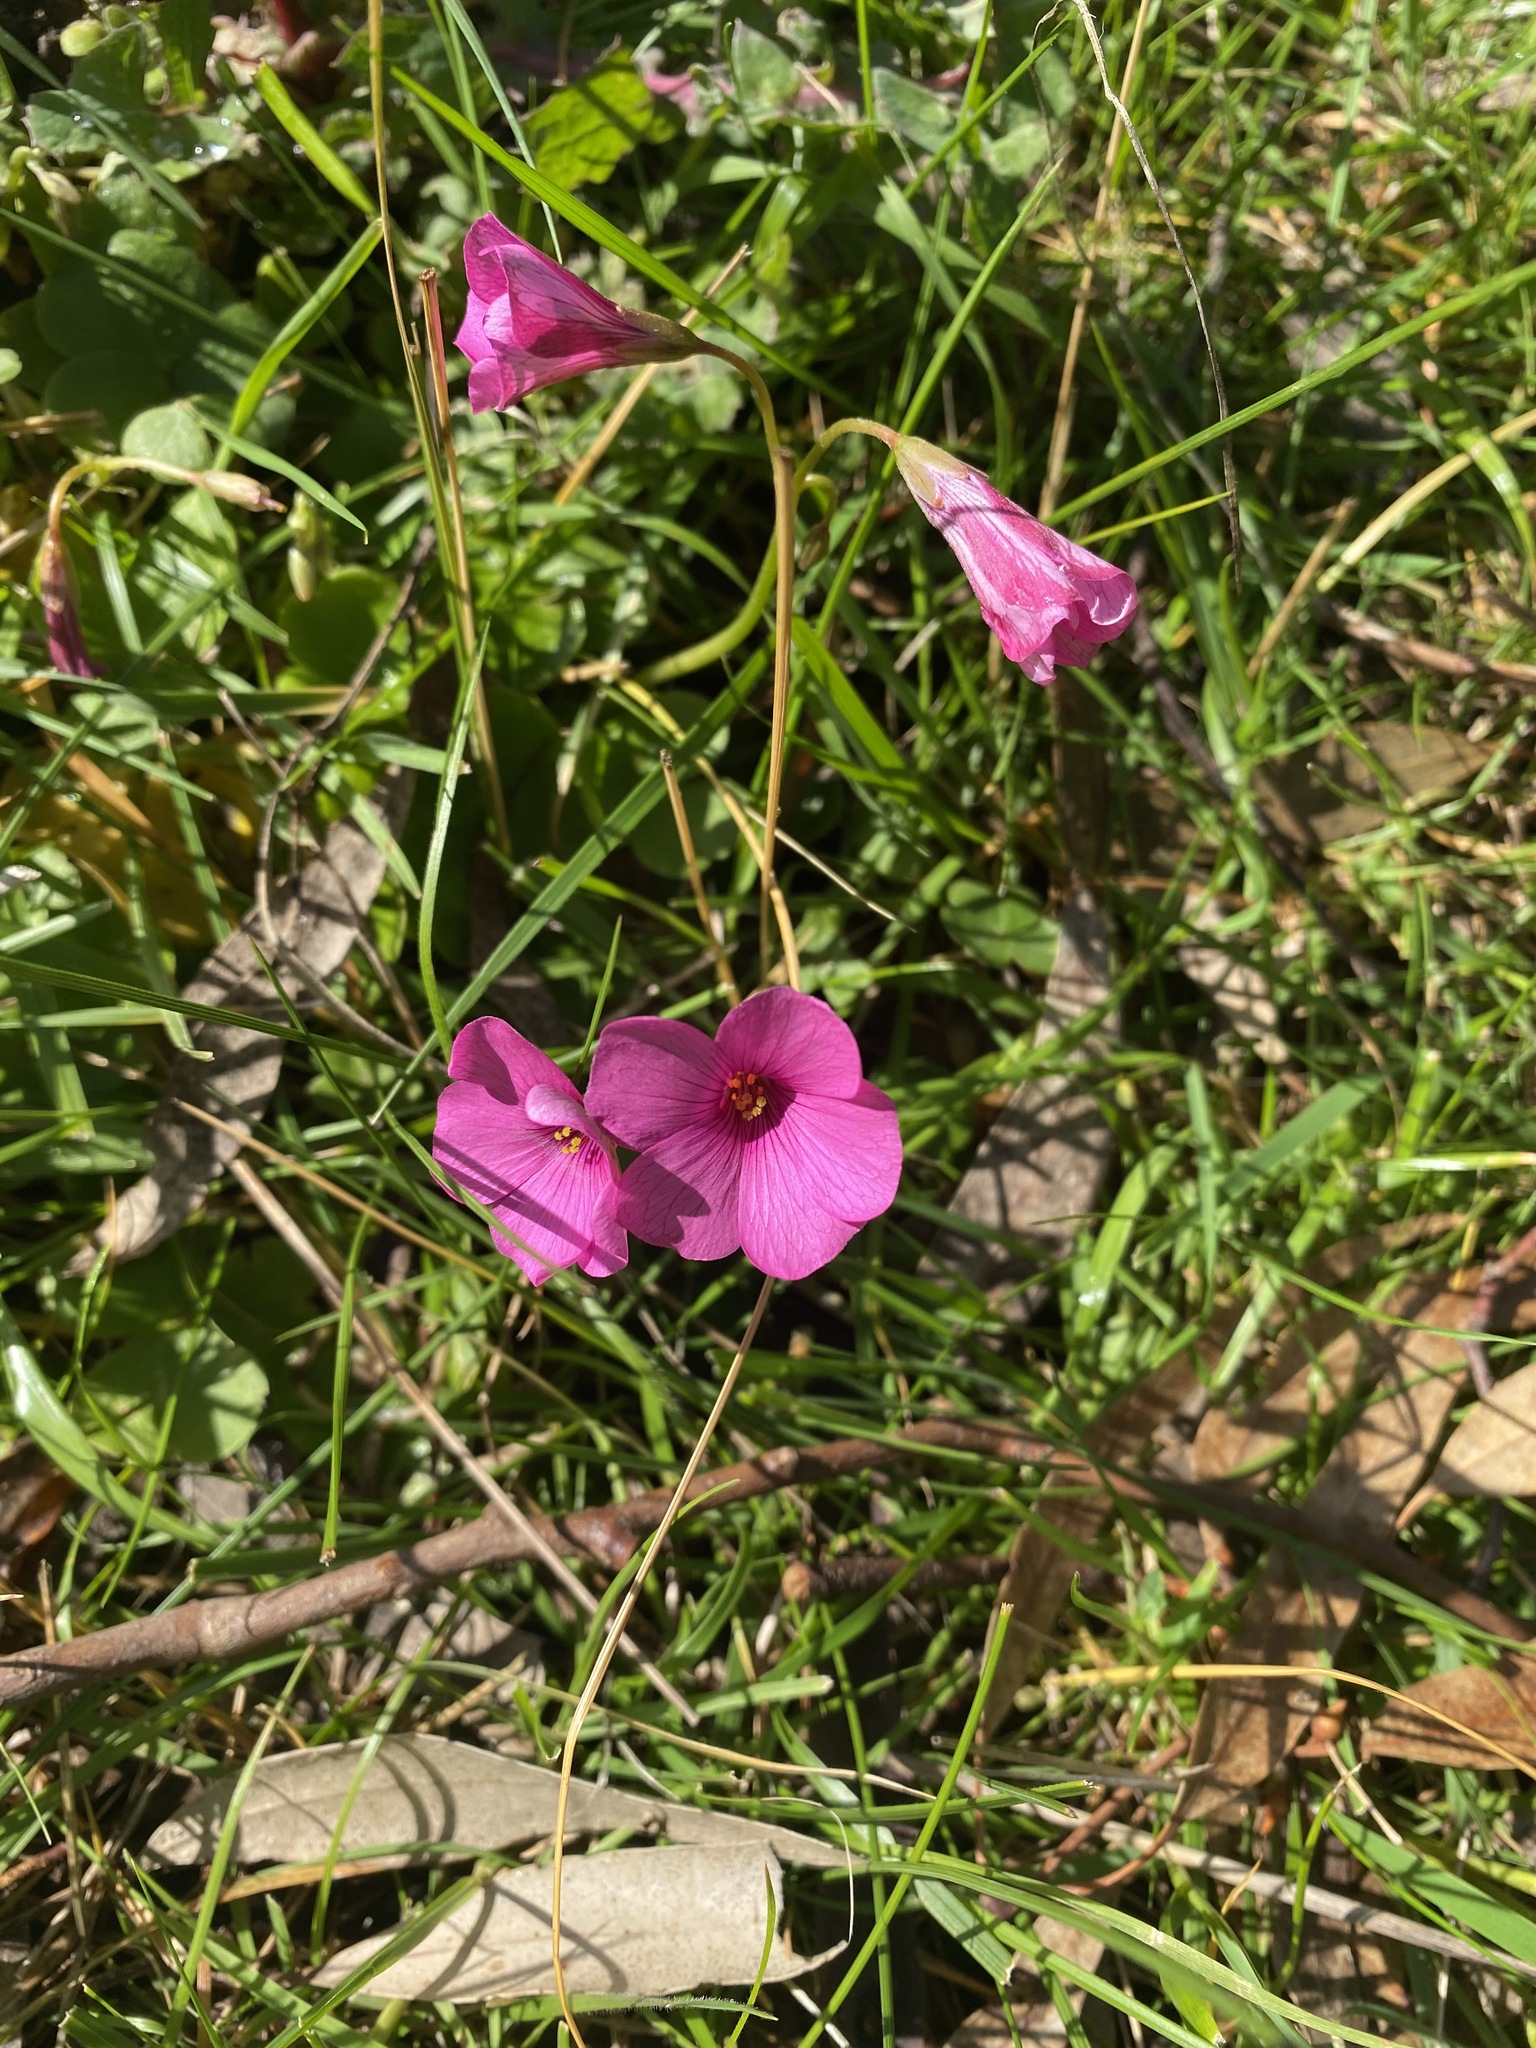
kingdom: Plantae
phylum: Tracheophyta
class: Magnoliopsida
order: Oxalidales
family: Oxalidaceae
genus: Oxalis
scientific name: Oxalis brasiliensis
